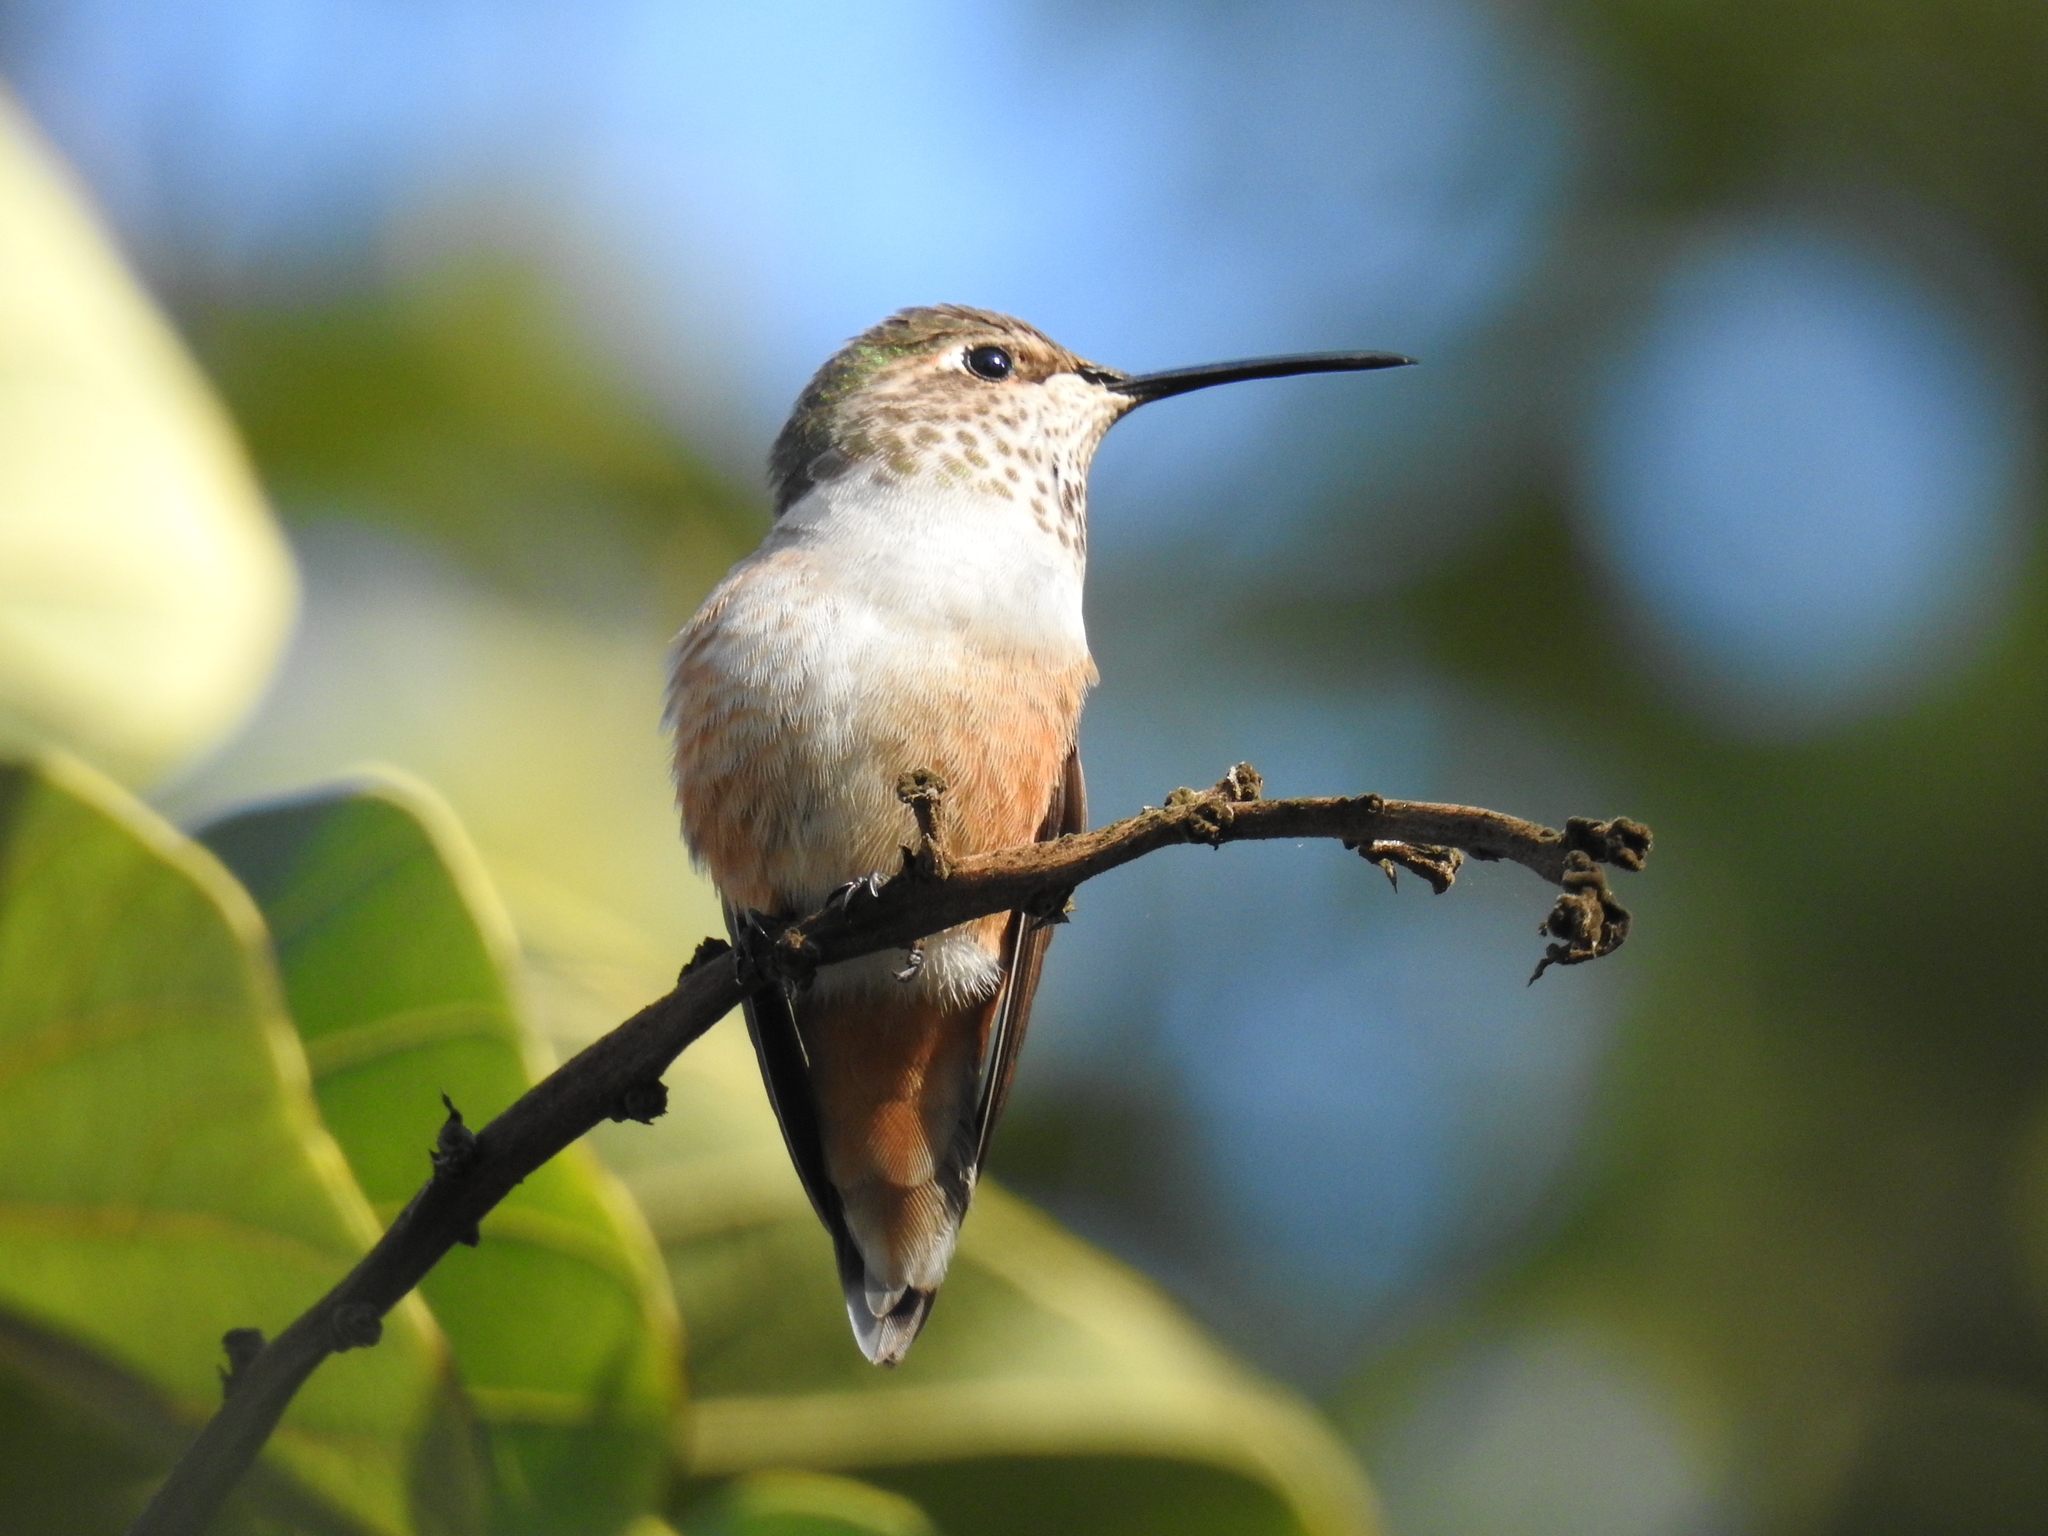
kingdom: Animalia
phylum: Chordata
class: Aves
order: Apodiformes
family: Trochilidae
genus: Selasphorus
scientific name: Selasphorus
